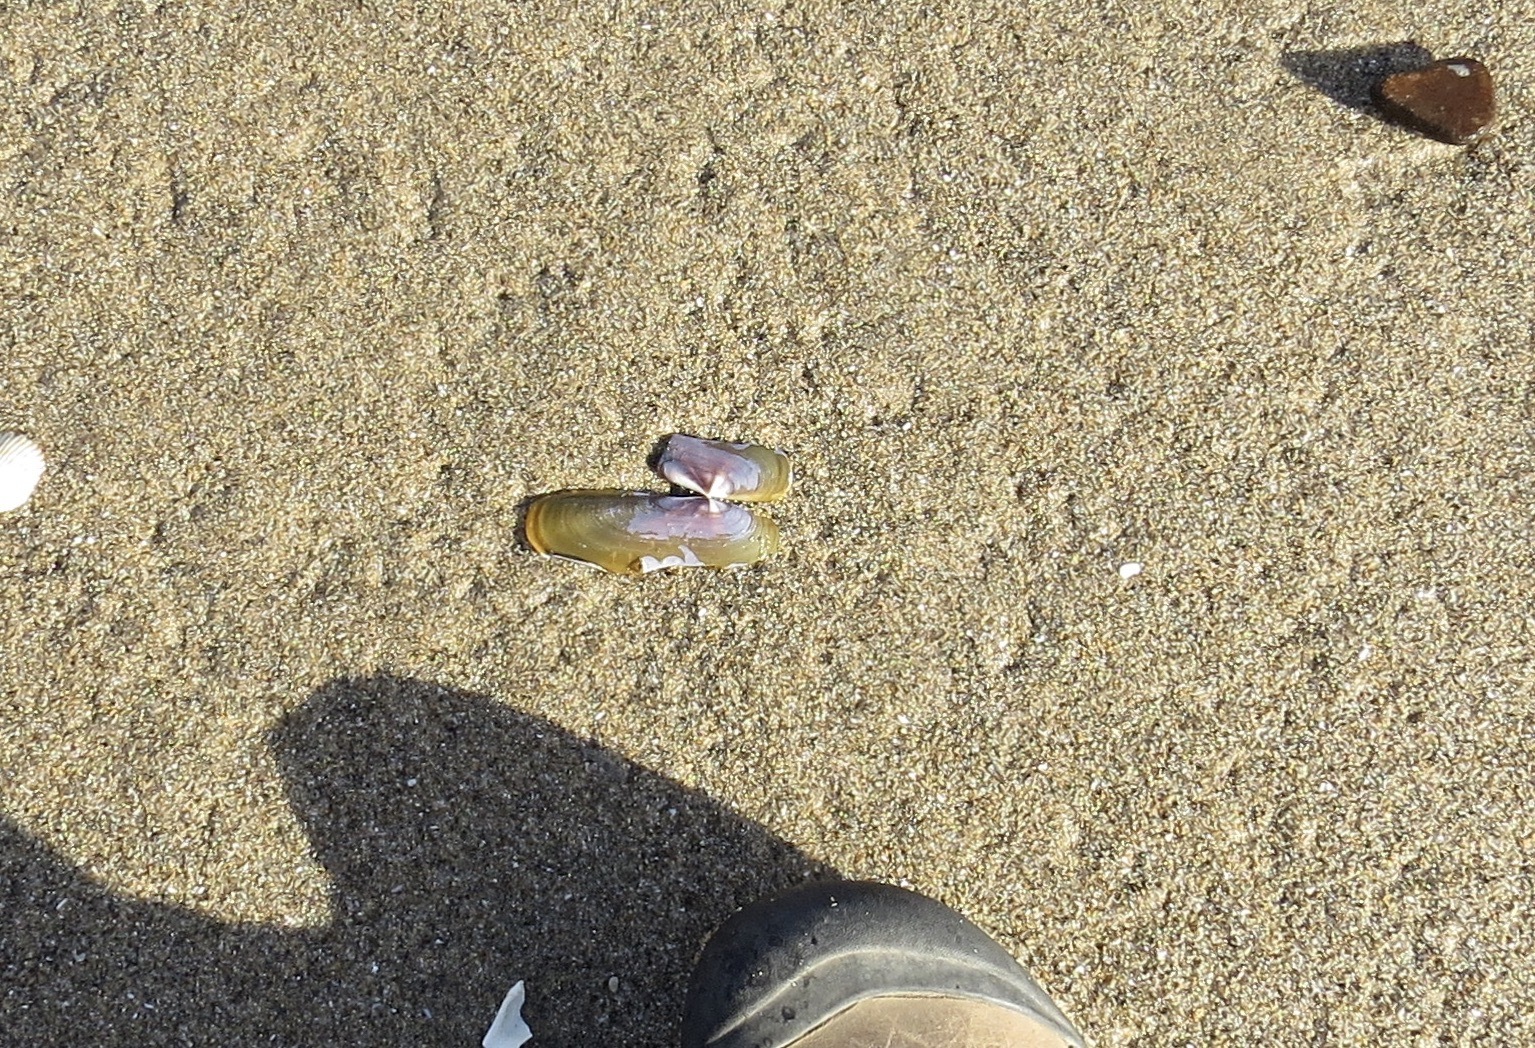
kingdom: Animalia
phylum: Mollusca
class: Bivalvia
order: Adapedonta
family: Pharidae
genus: Siliqua
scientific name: Siliqua patula
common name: Pacific razor clam
